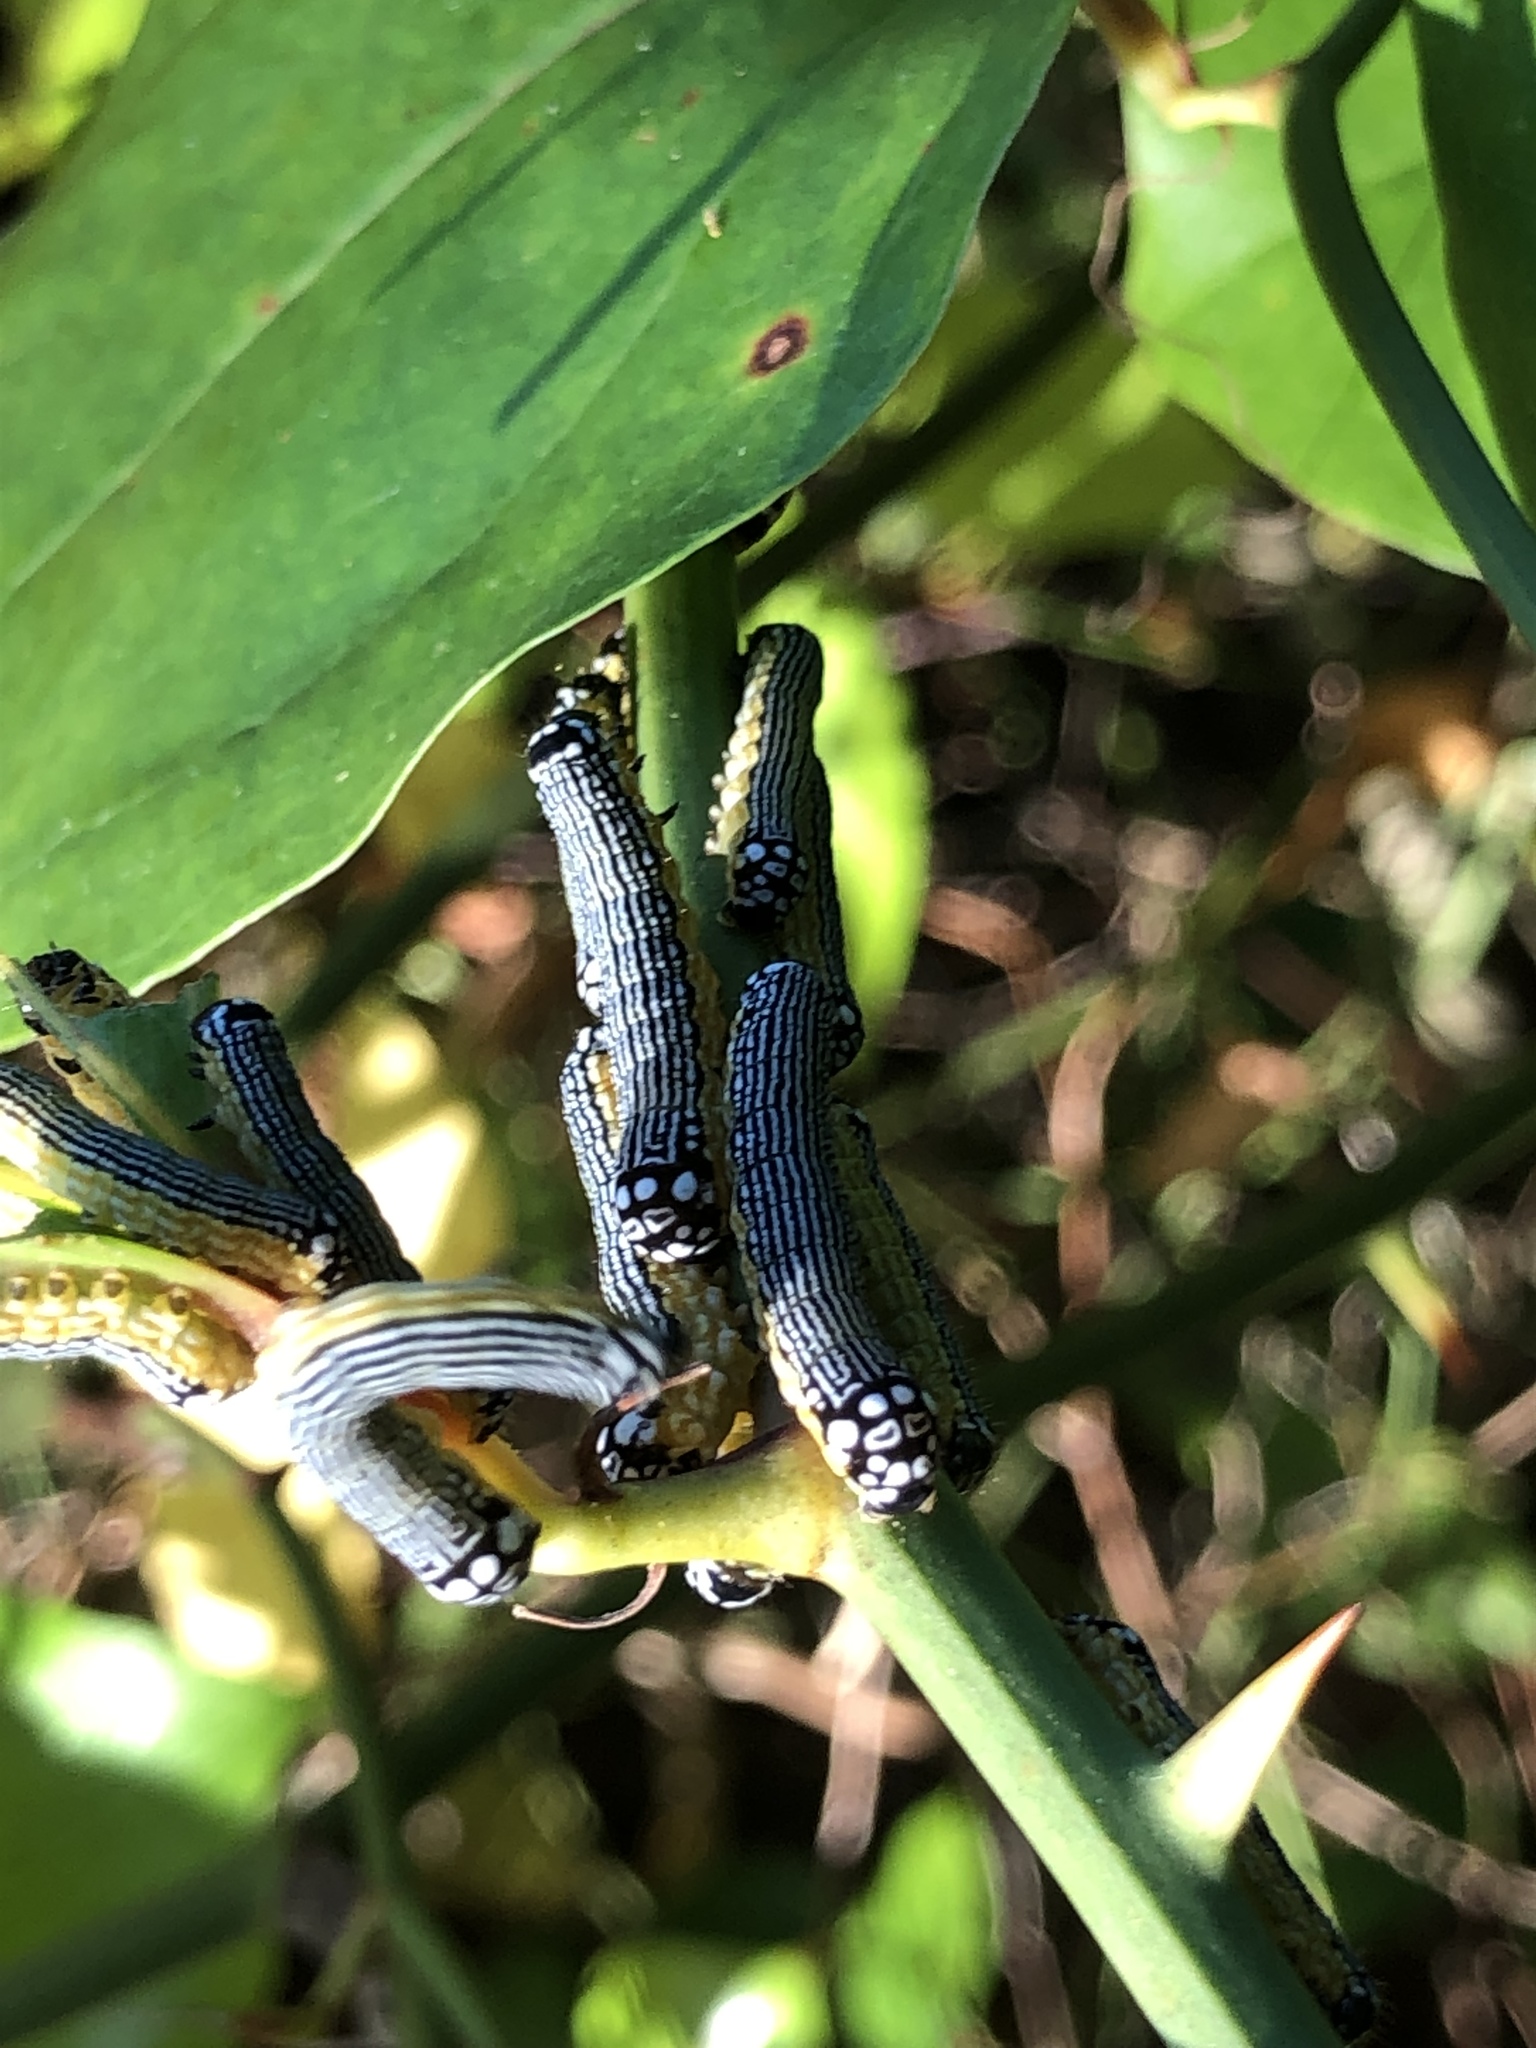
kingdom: Animalia
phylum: Arthropoda
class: Insecta
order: Lepidoptera
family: Noctuidae
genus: Phosphila
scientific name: Phosphila turbulenta
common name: Turbulent phosphila moth
